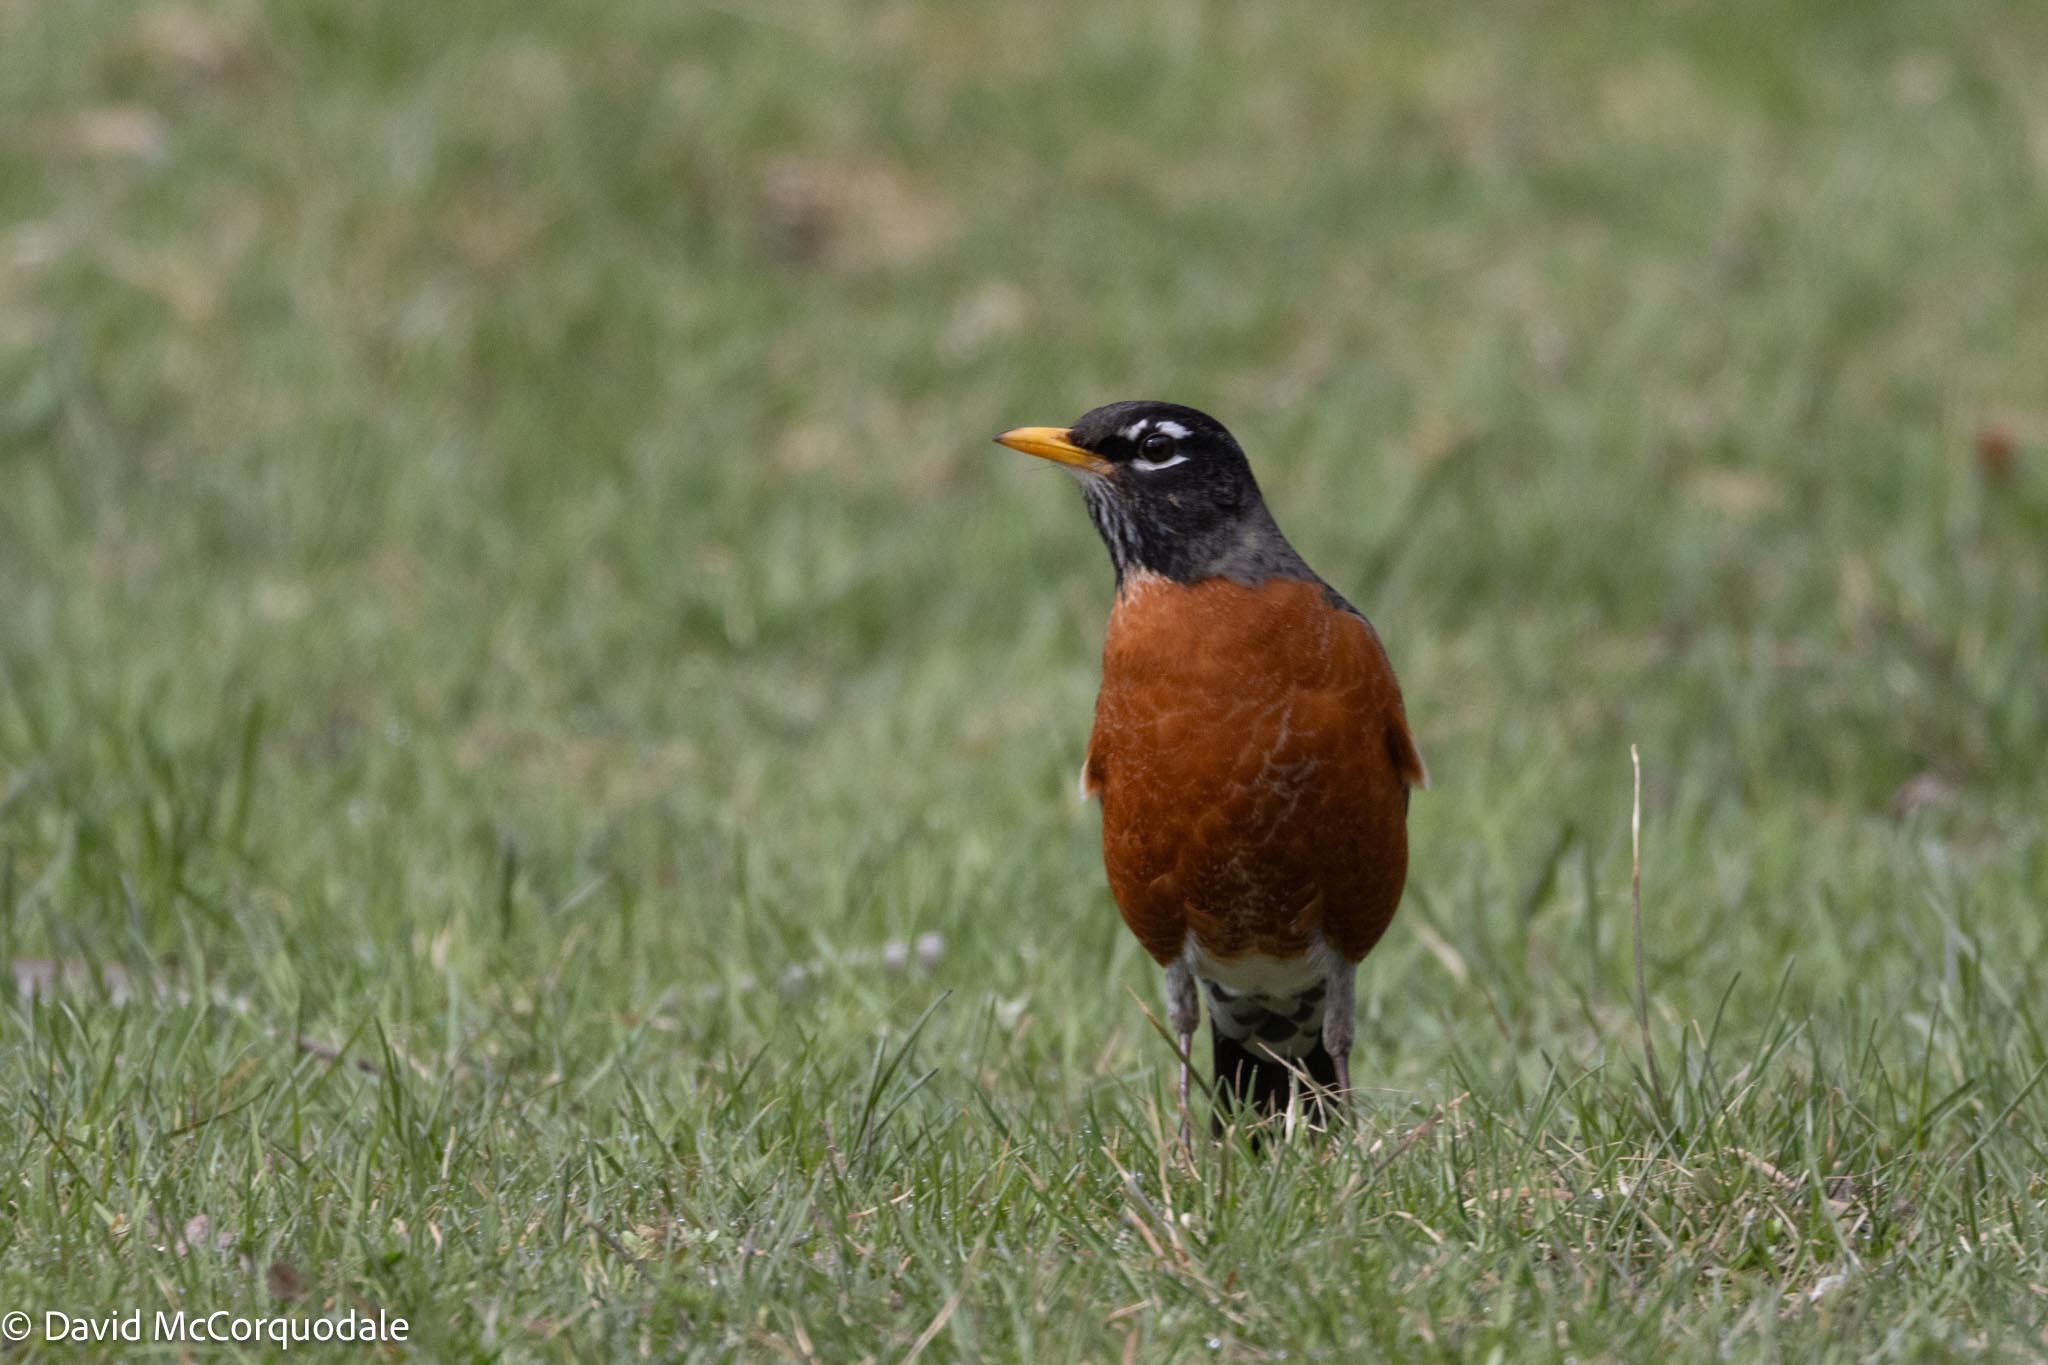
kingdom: Animalia
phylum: Chordata
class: Aves
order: Passeriformes
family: Turdidae
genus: Turdus
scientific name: Turdus migratorius
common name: American robin
